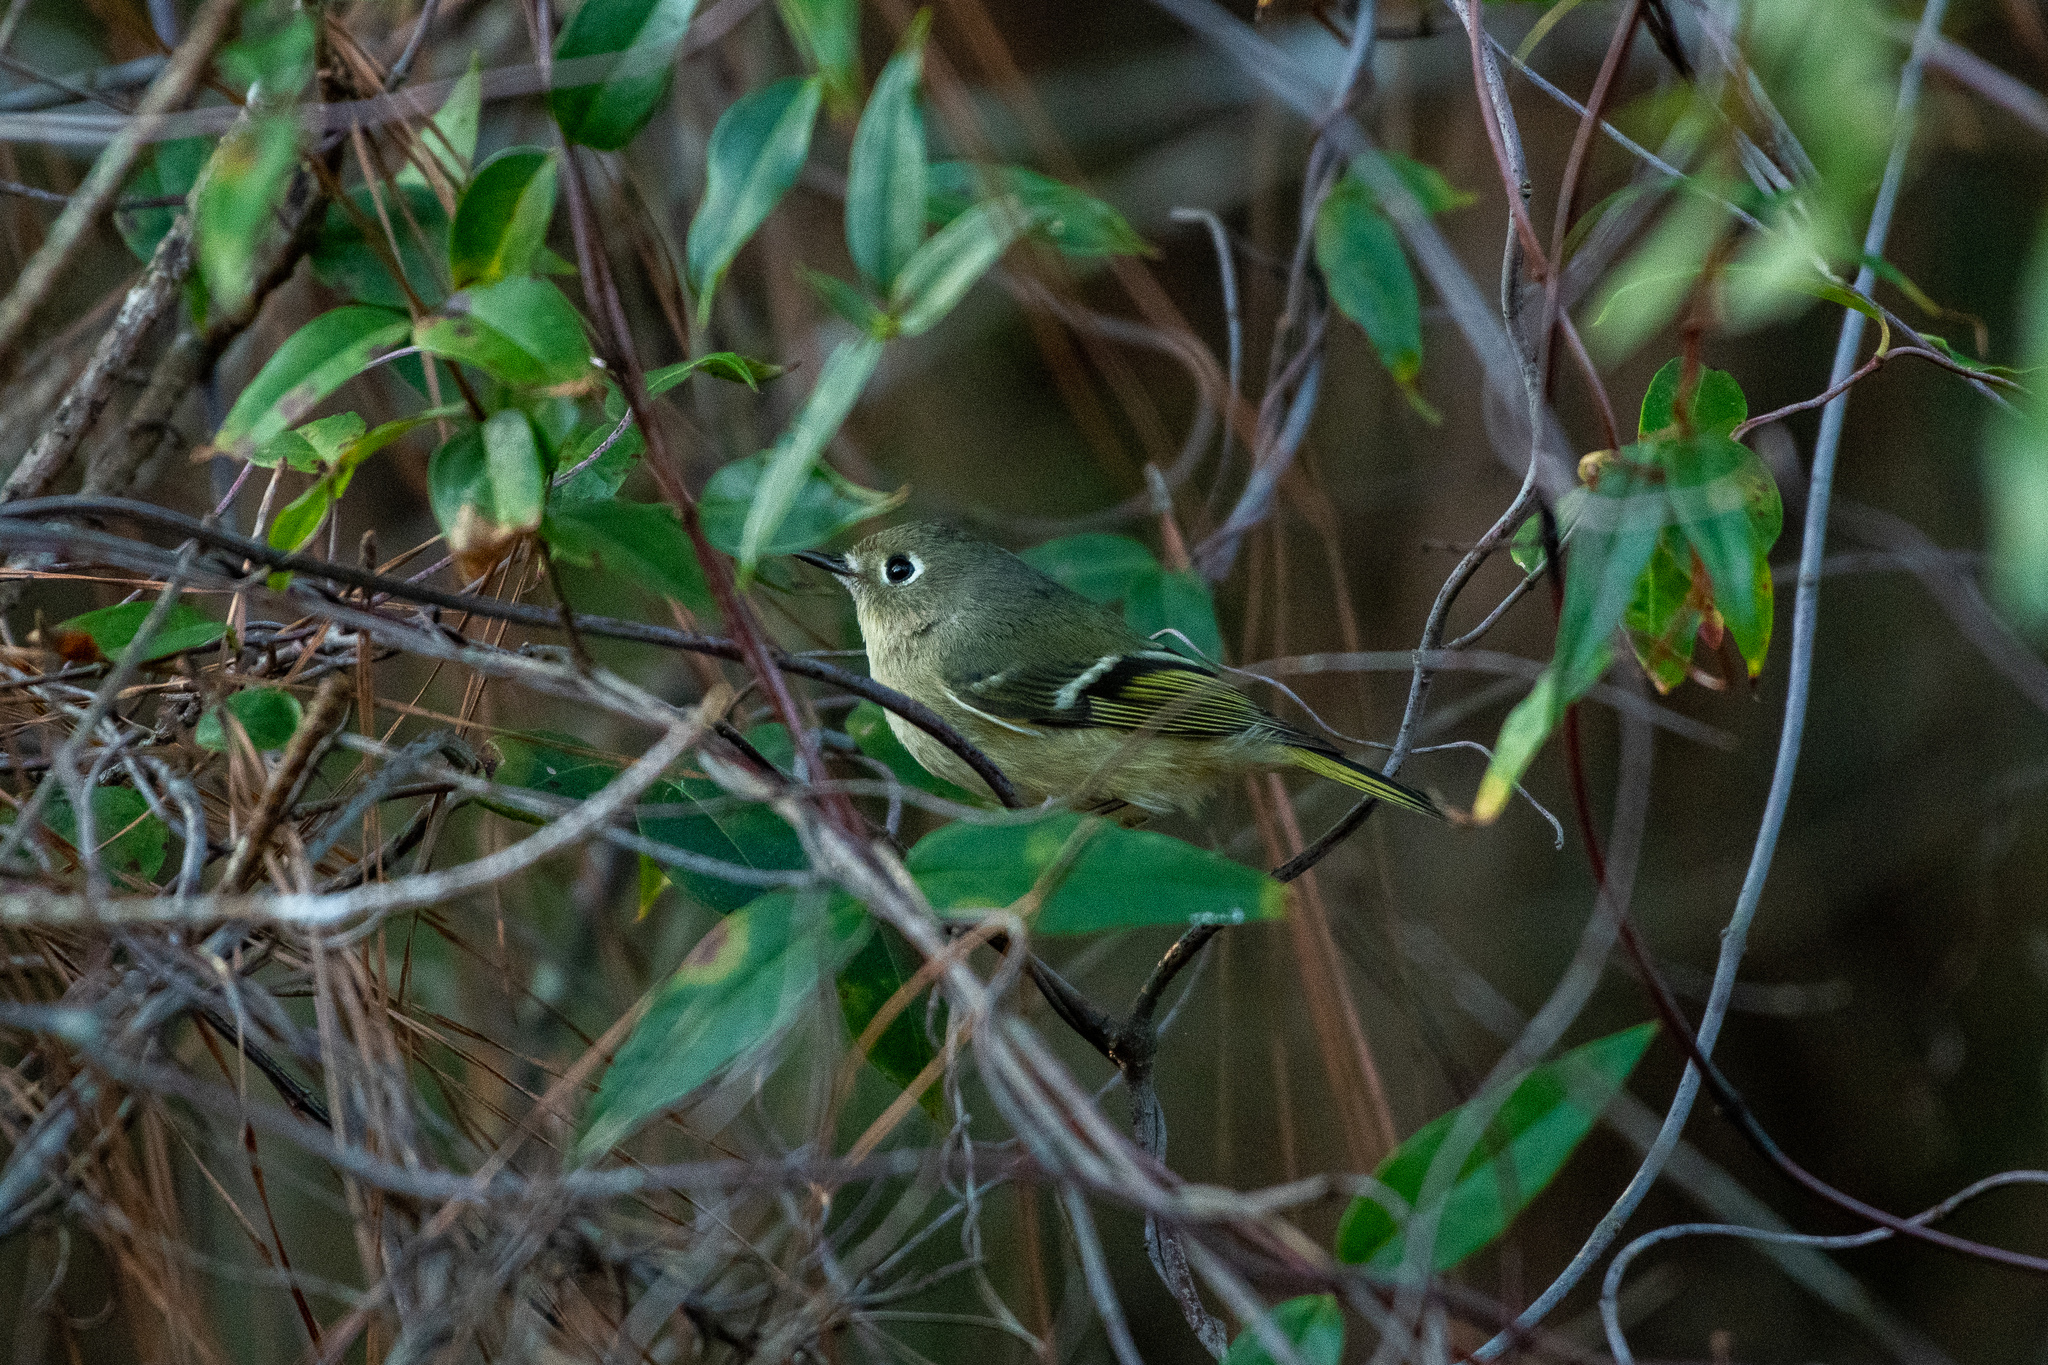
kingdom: Animalia
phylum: Chordata
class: Aves
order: Passeriformes
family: Regulidae
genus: Regulus
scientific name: Regulus calendula
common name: Ruby-crowned kinglet
